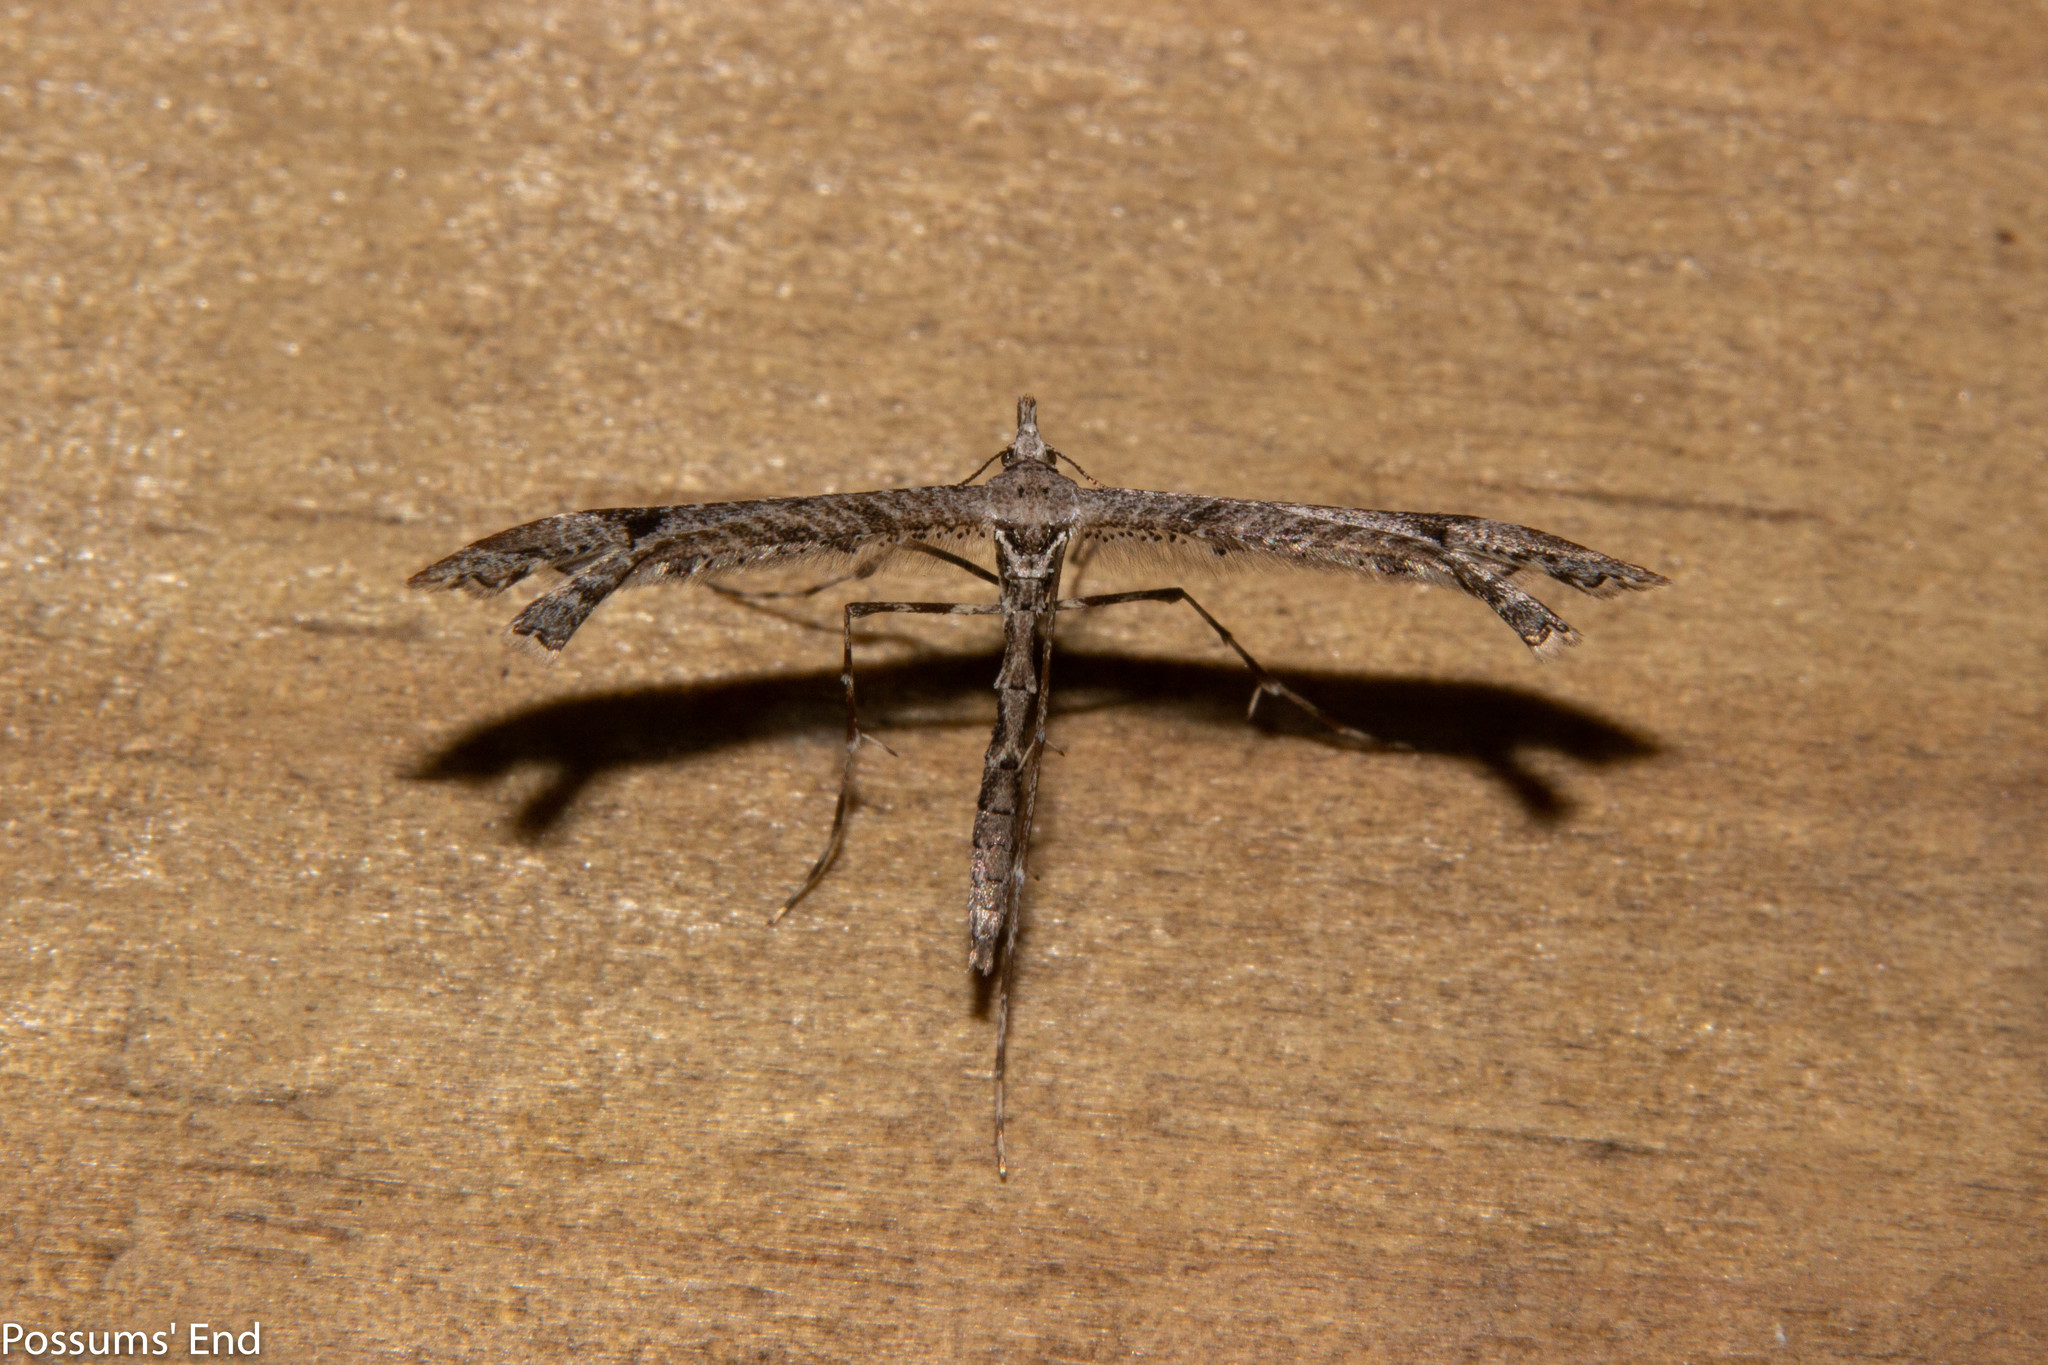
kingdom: Animalia
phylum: Arthropoda
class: Insecta
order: Lepidoptera
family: Pterophoridae
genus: Amblyptilia
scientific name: Amblyptilia repletalis
